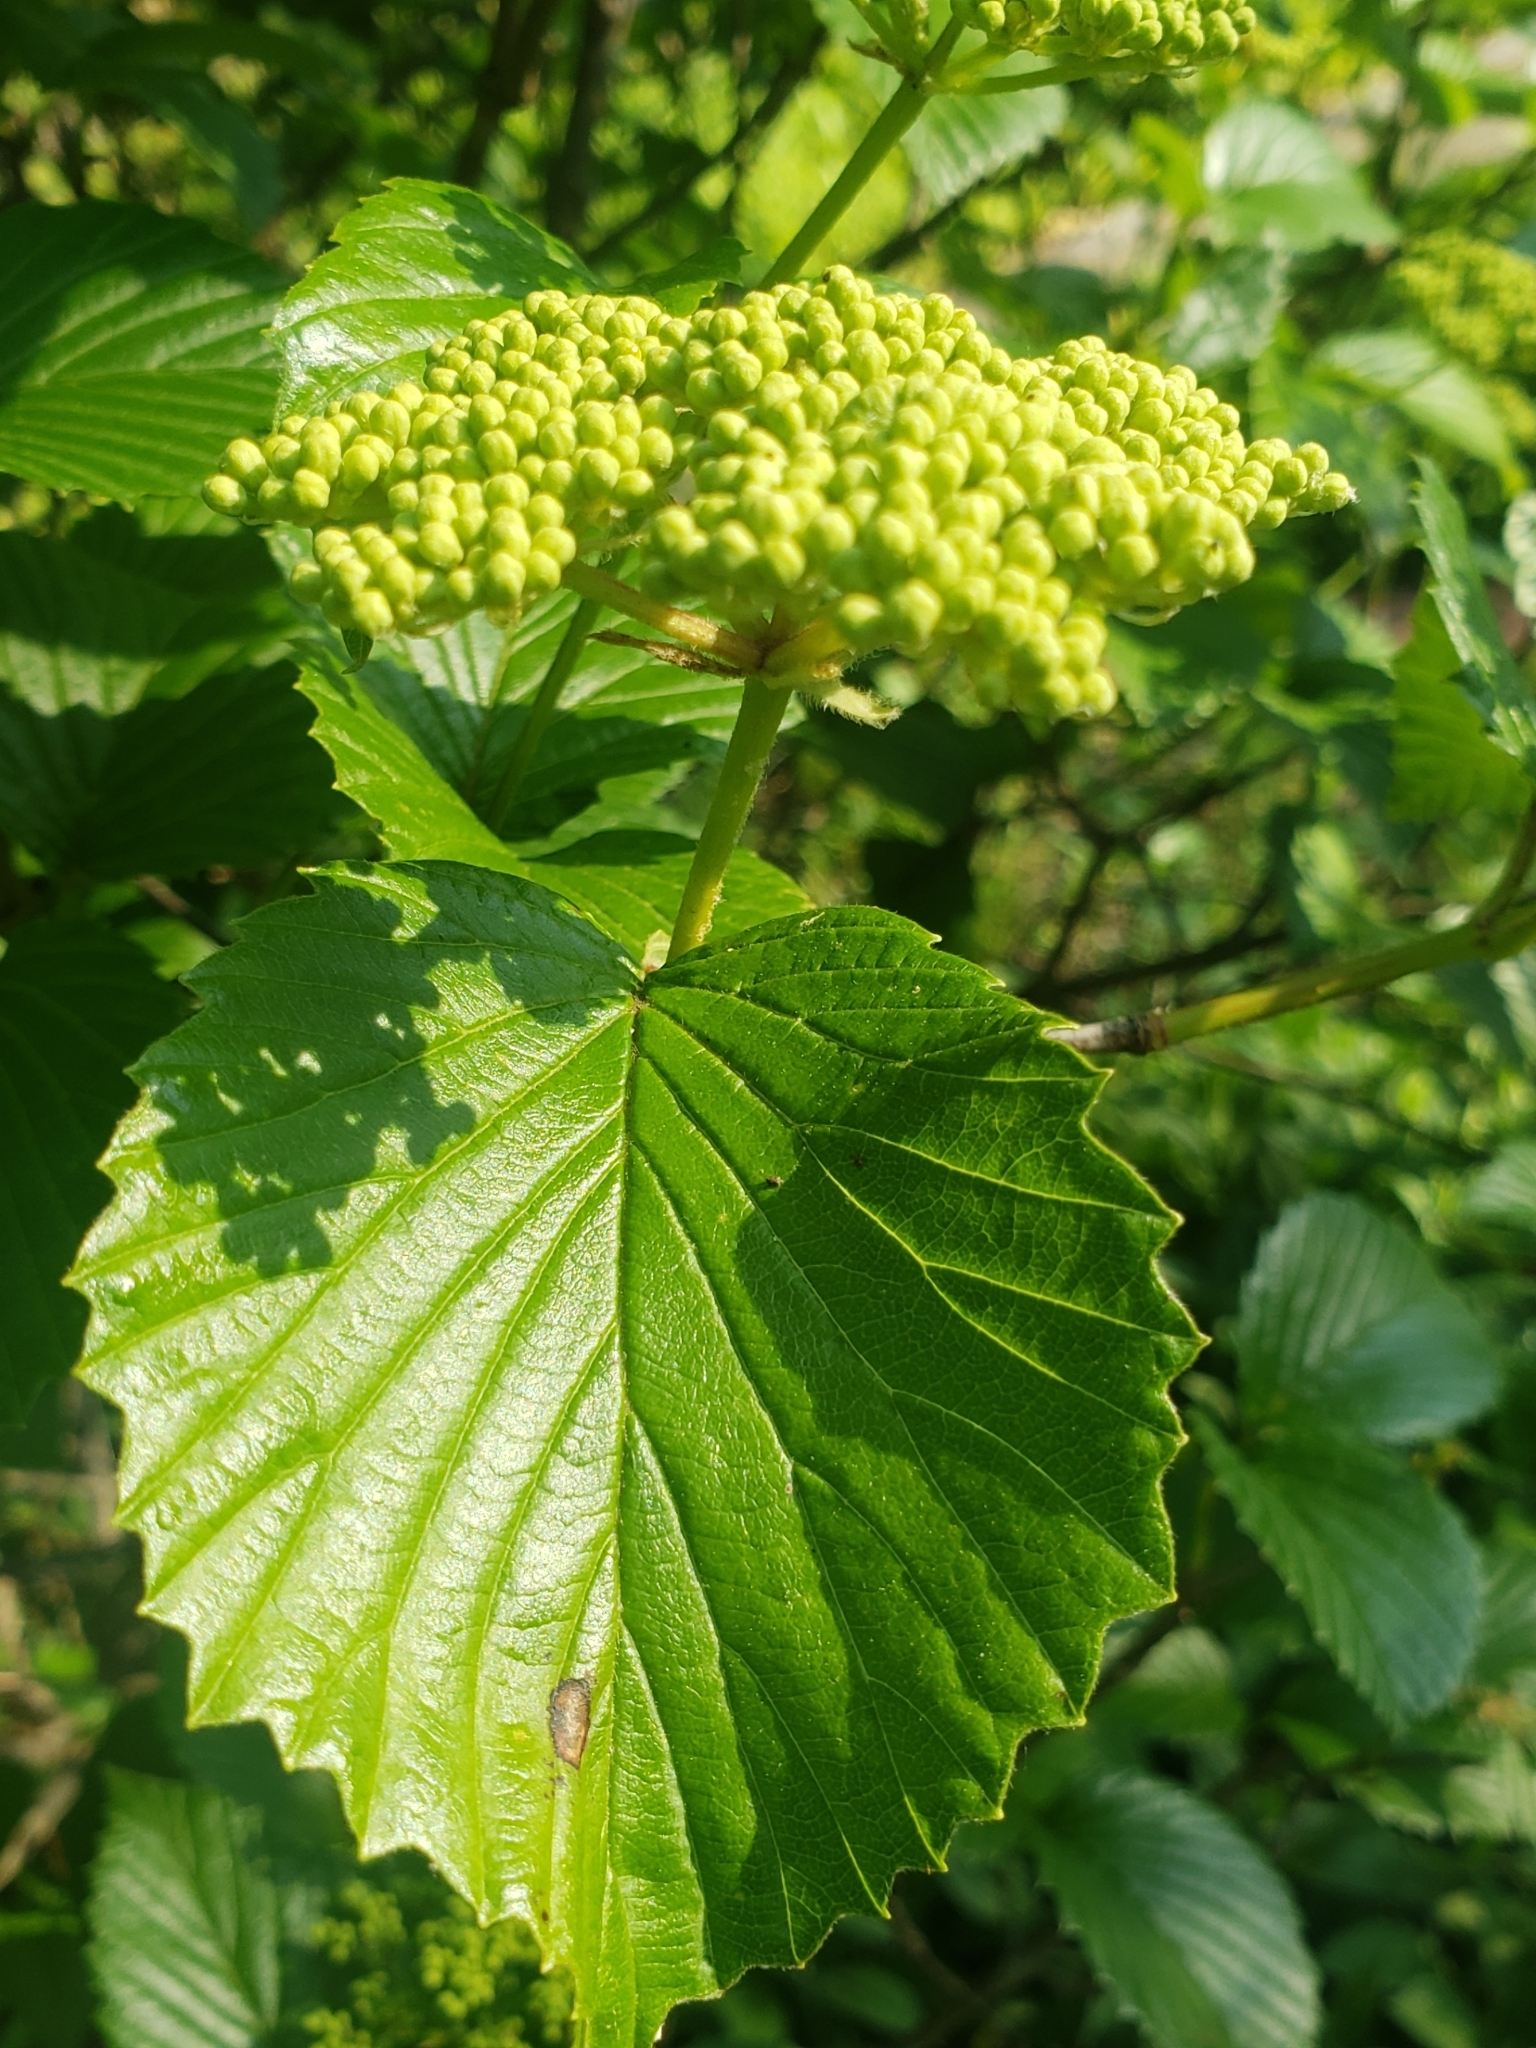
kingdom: Plantae
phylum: Tracheophyta
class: Magnoliopsida
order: Dipsacales
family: Viburnaceae
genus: Viburnum
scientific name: Viburnum dentatum
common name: Arrow-wood
